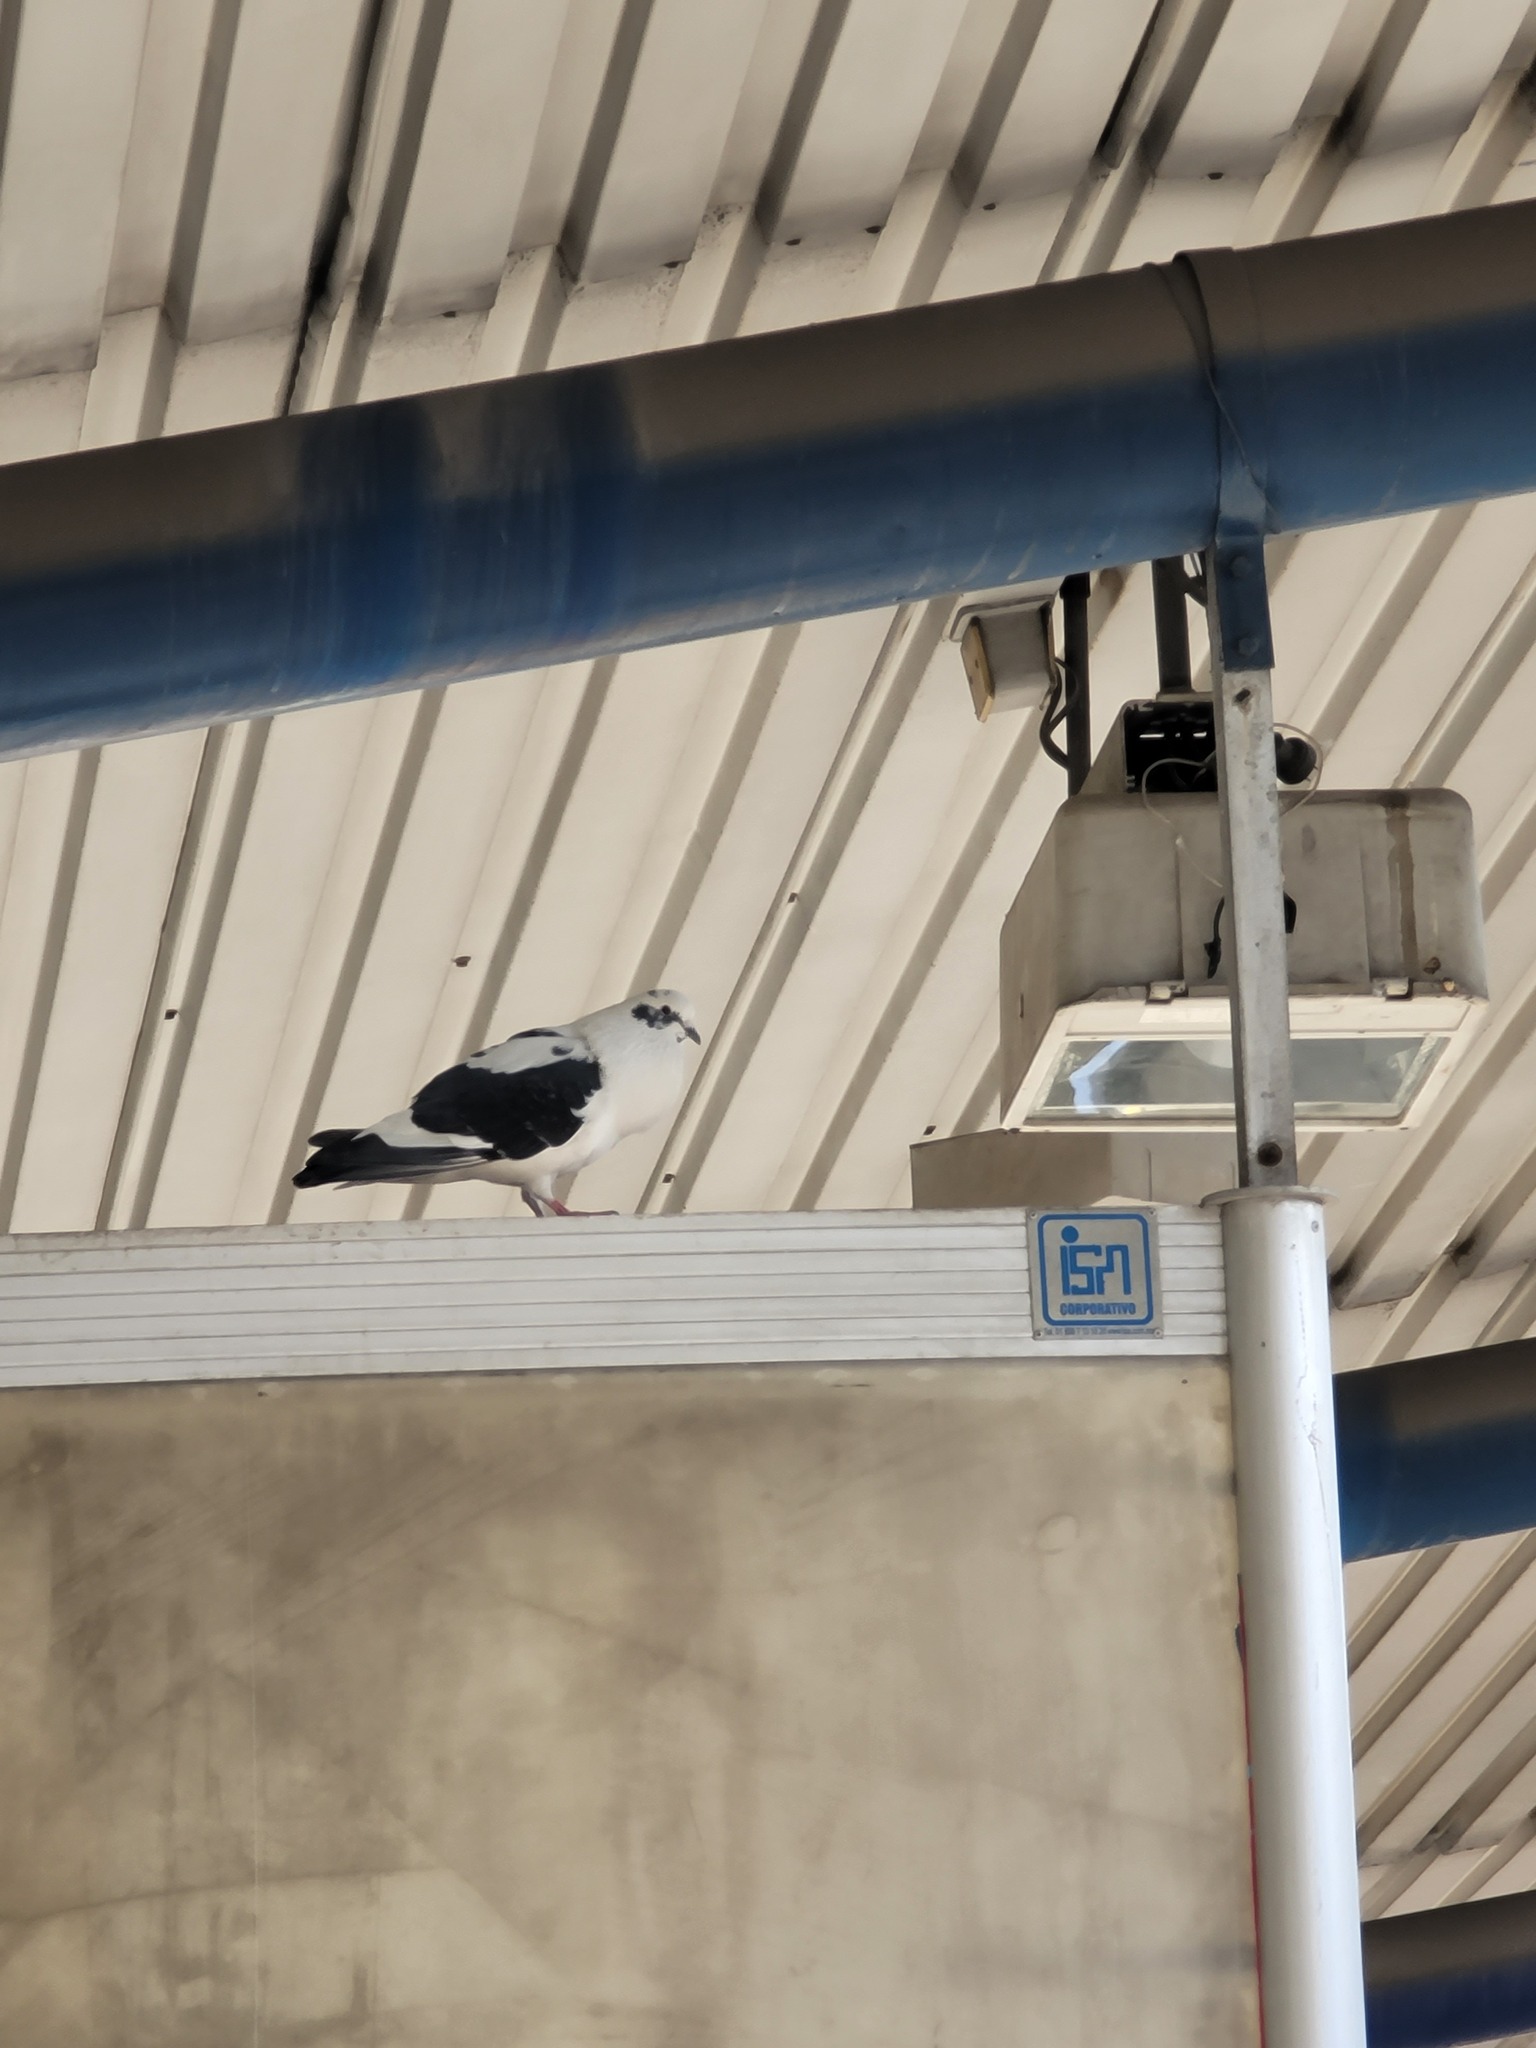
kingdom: Animalia
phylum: Chordata
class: Aves
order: Columbiformes
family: Columbidae
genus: Columba
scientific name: Columba livia
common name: Rock pigeon
